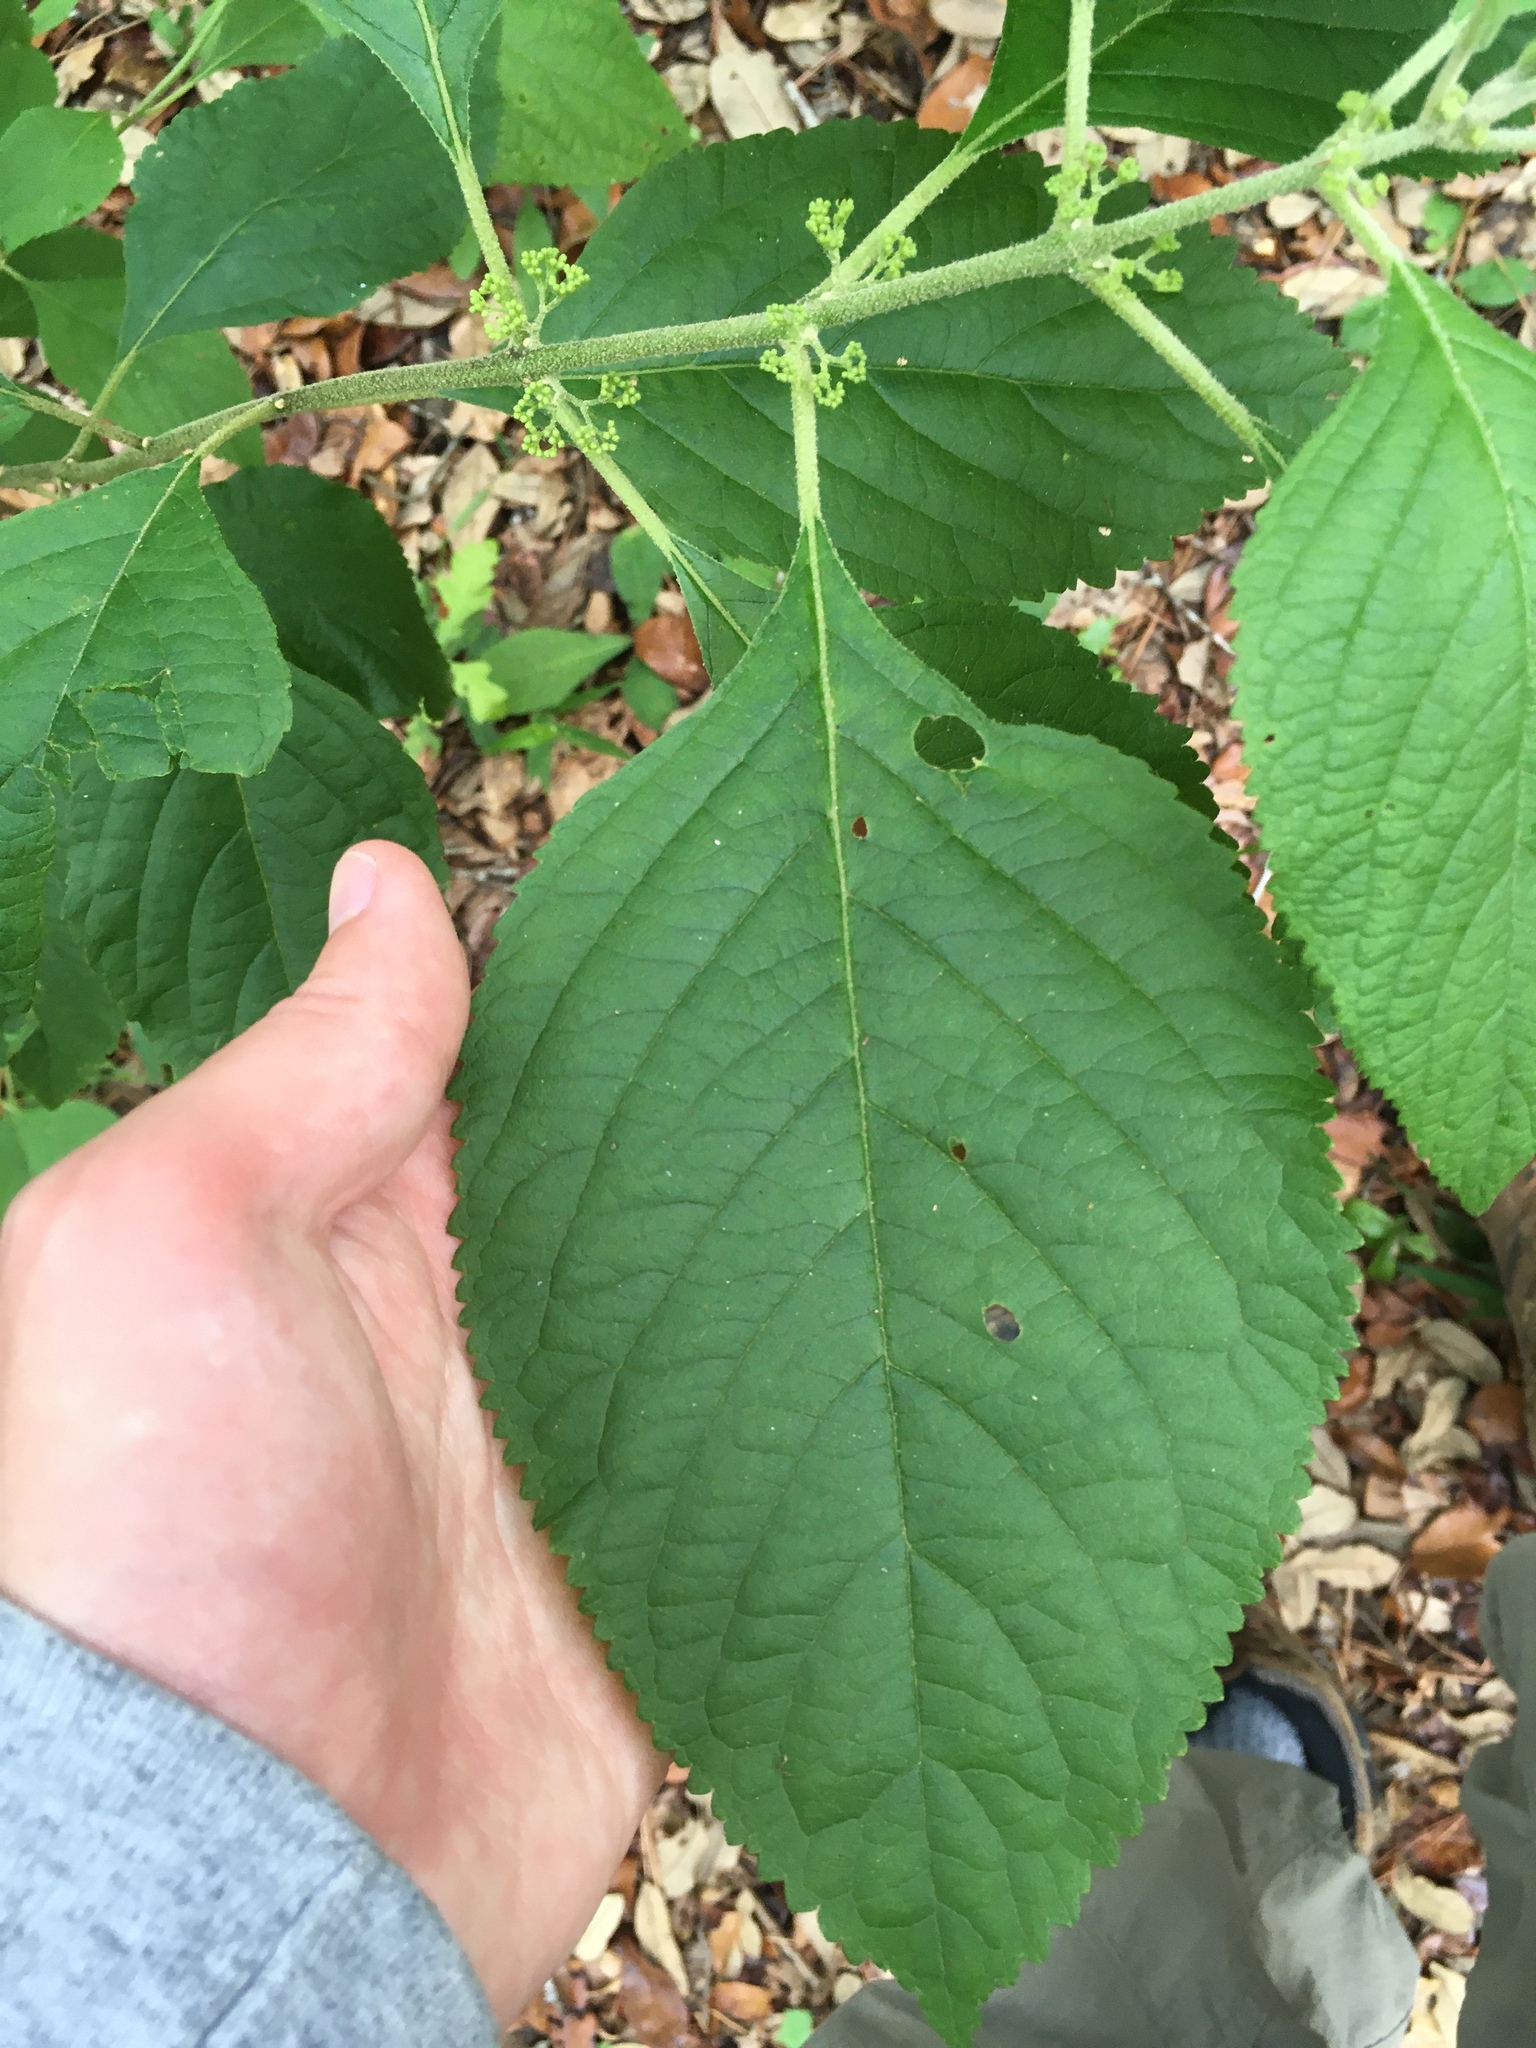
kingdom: Plantae
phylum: Tracheophyta
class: Magnoliopsida
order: Lamiales
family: Lamiaceae
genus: Callicarpa
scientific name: Callicarpa americana
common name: American beautyberry
